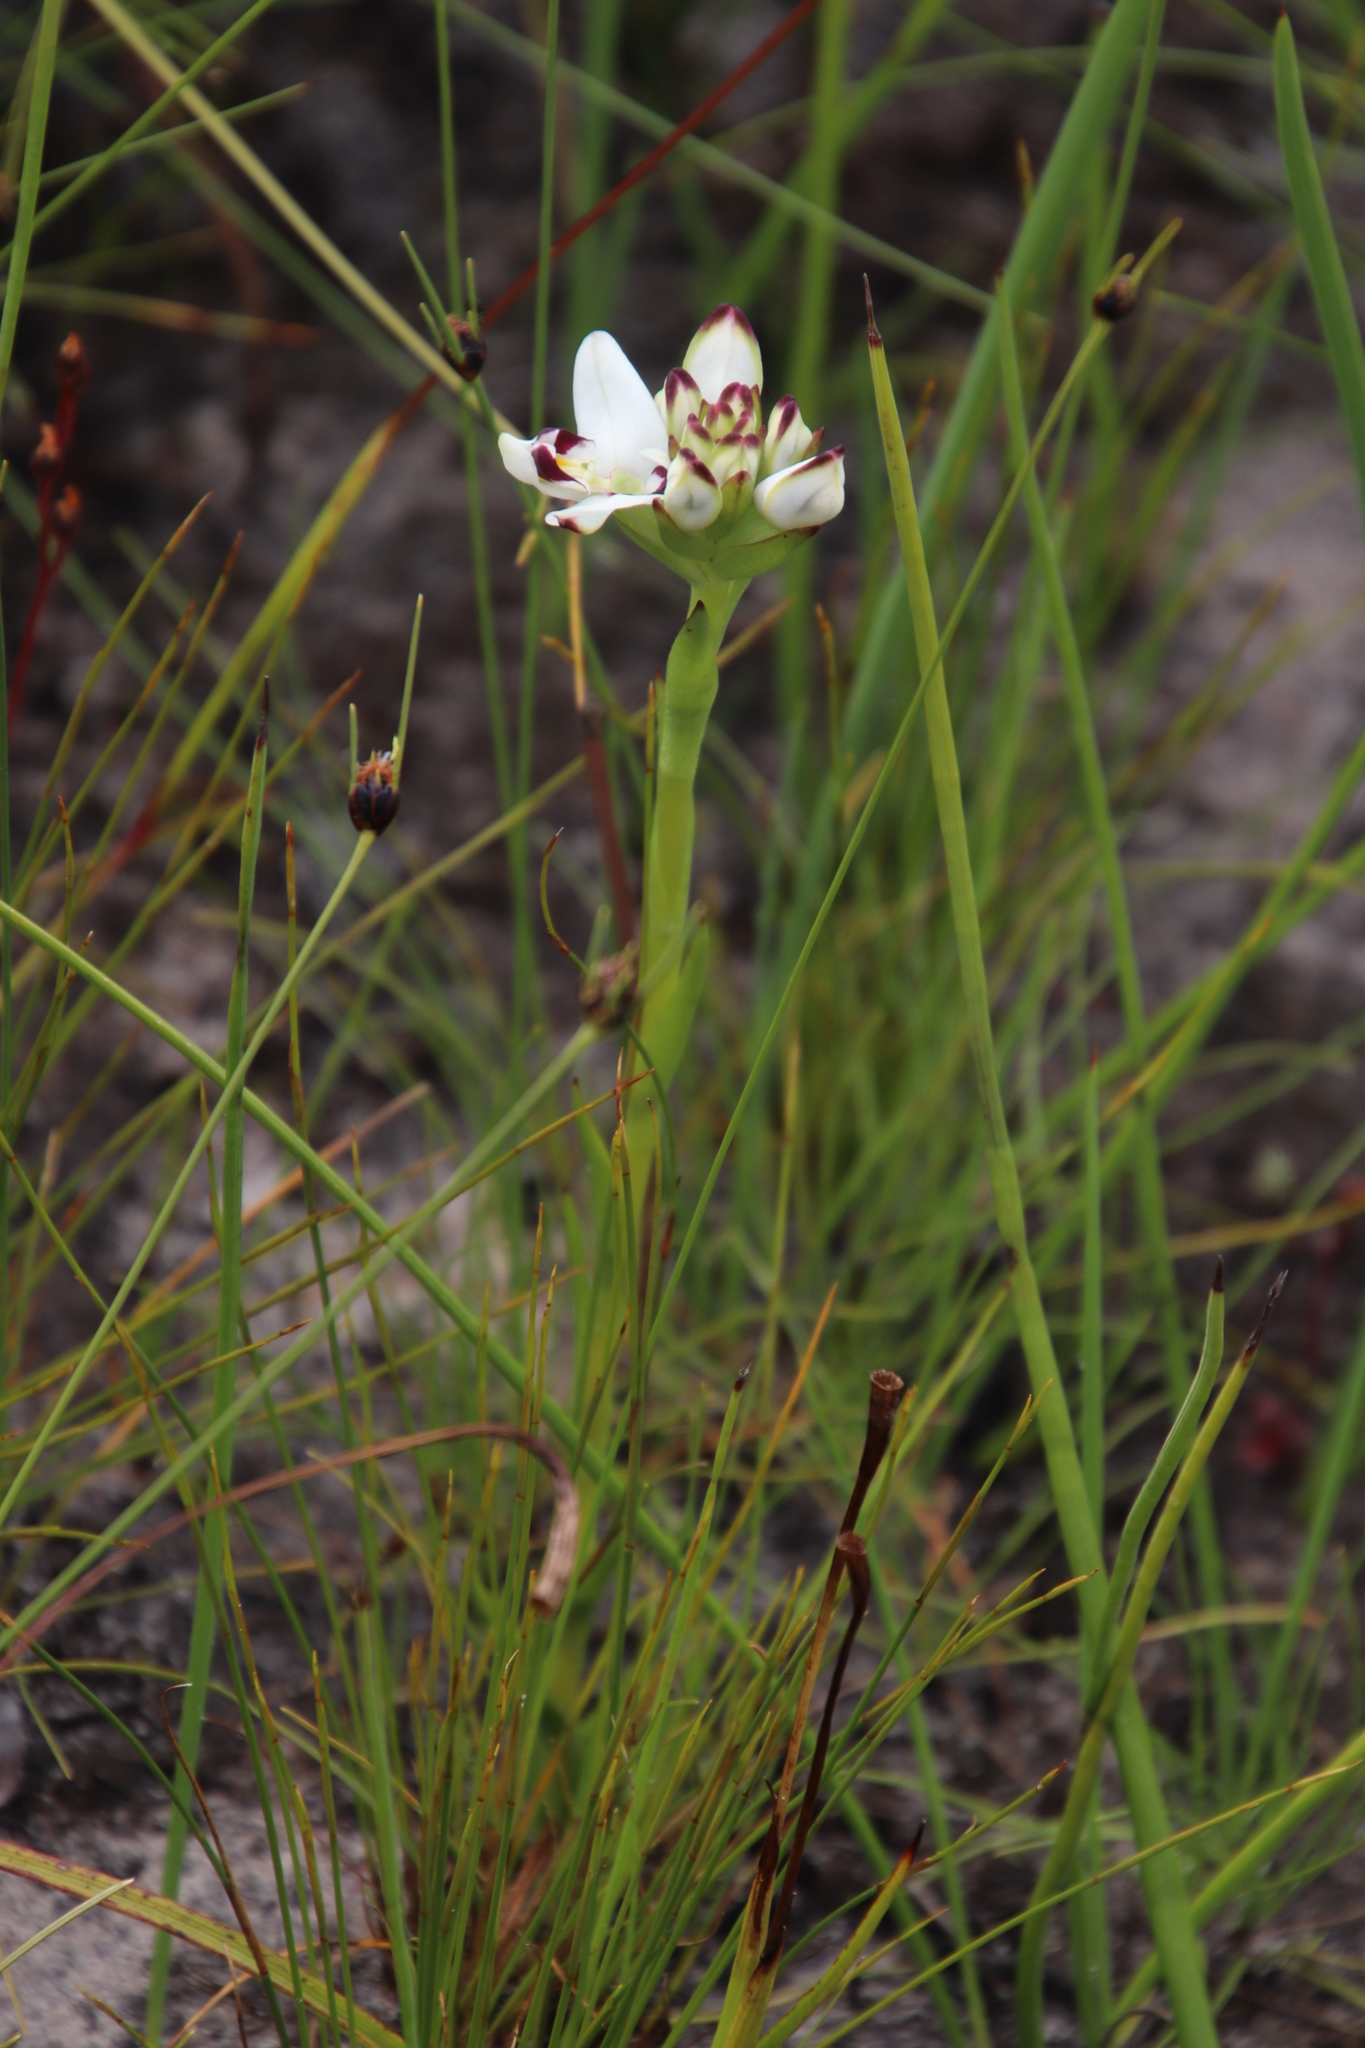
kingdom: Plantae
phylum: Tracheophyta
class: Liliopsida
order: Asparagales
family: Orchidaceae
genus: Disa
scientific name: Disa bivalvata
